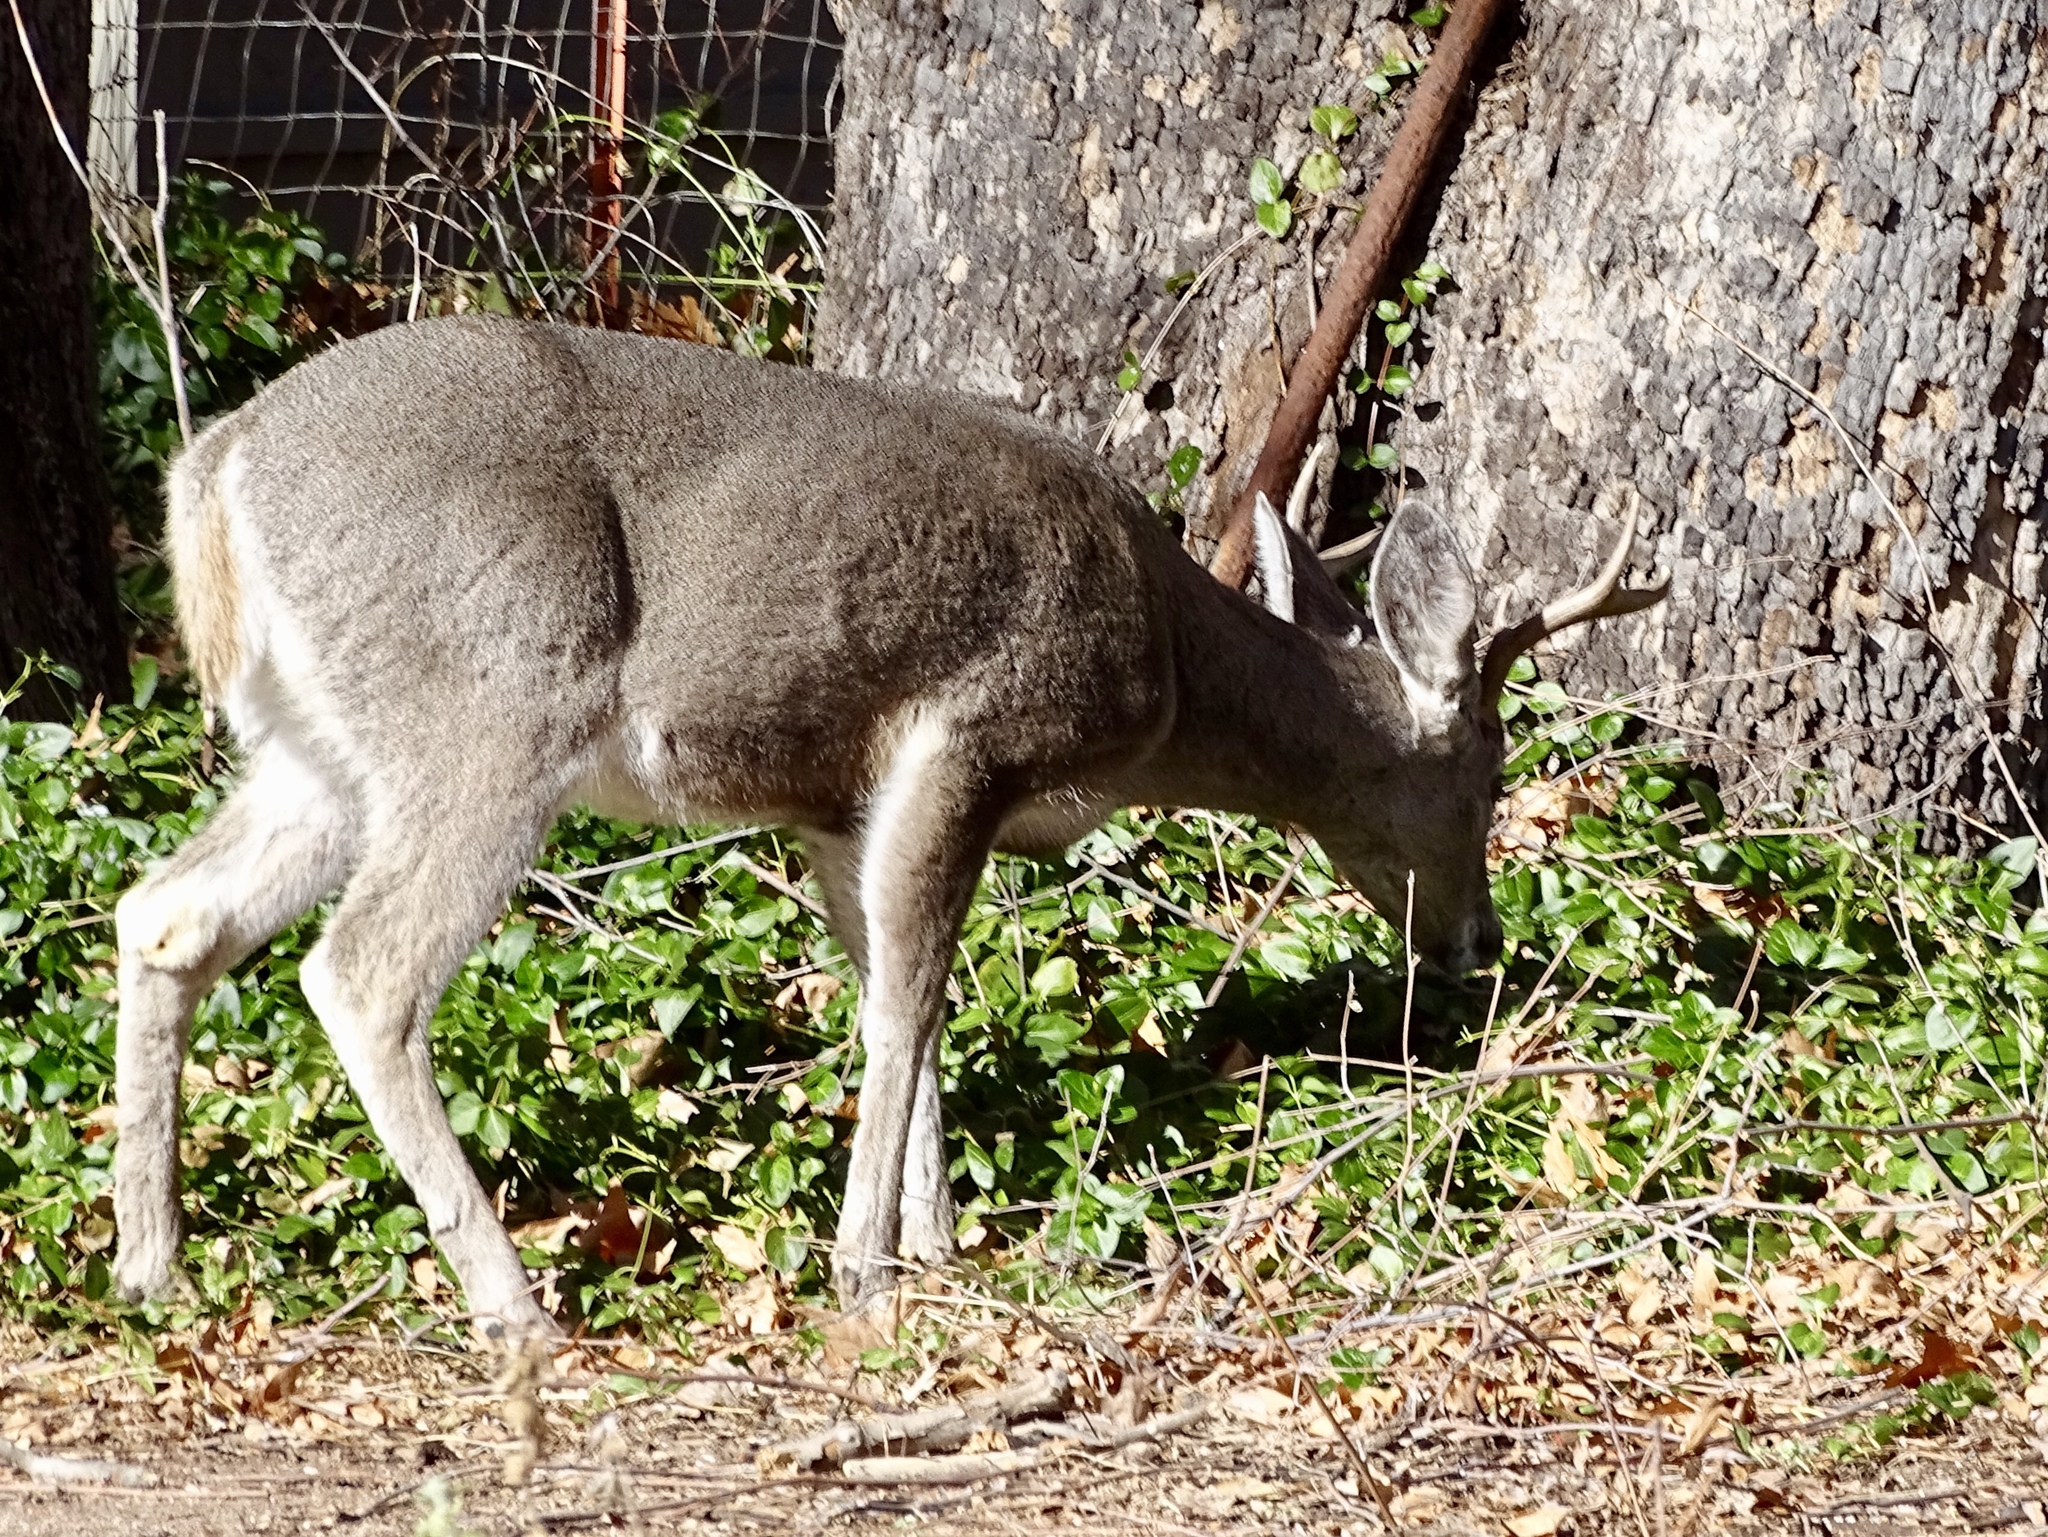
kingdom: Animalia
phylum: Chordata
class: Mammalia
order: Artiodactyla
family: Cervidae
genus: Odocoileus
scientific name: Odocoileus virginianus
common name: White-tailed deer
